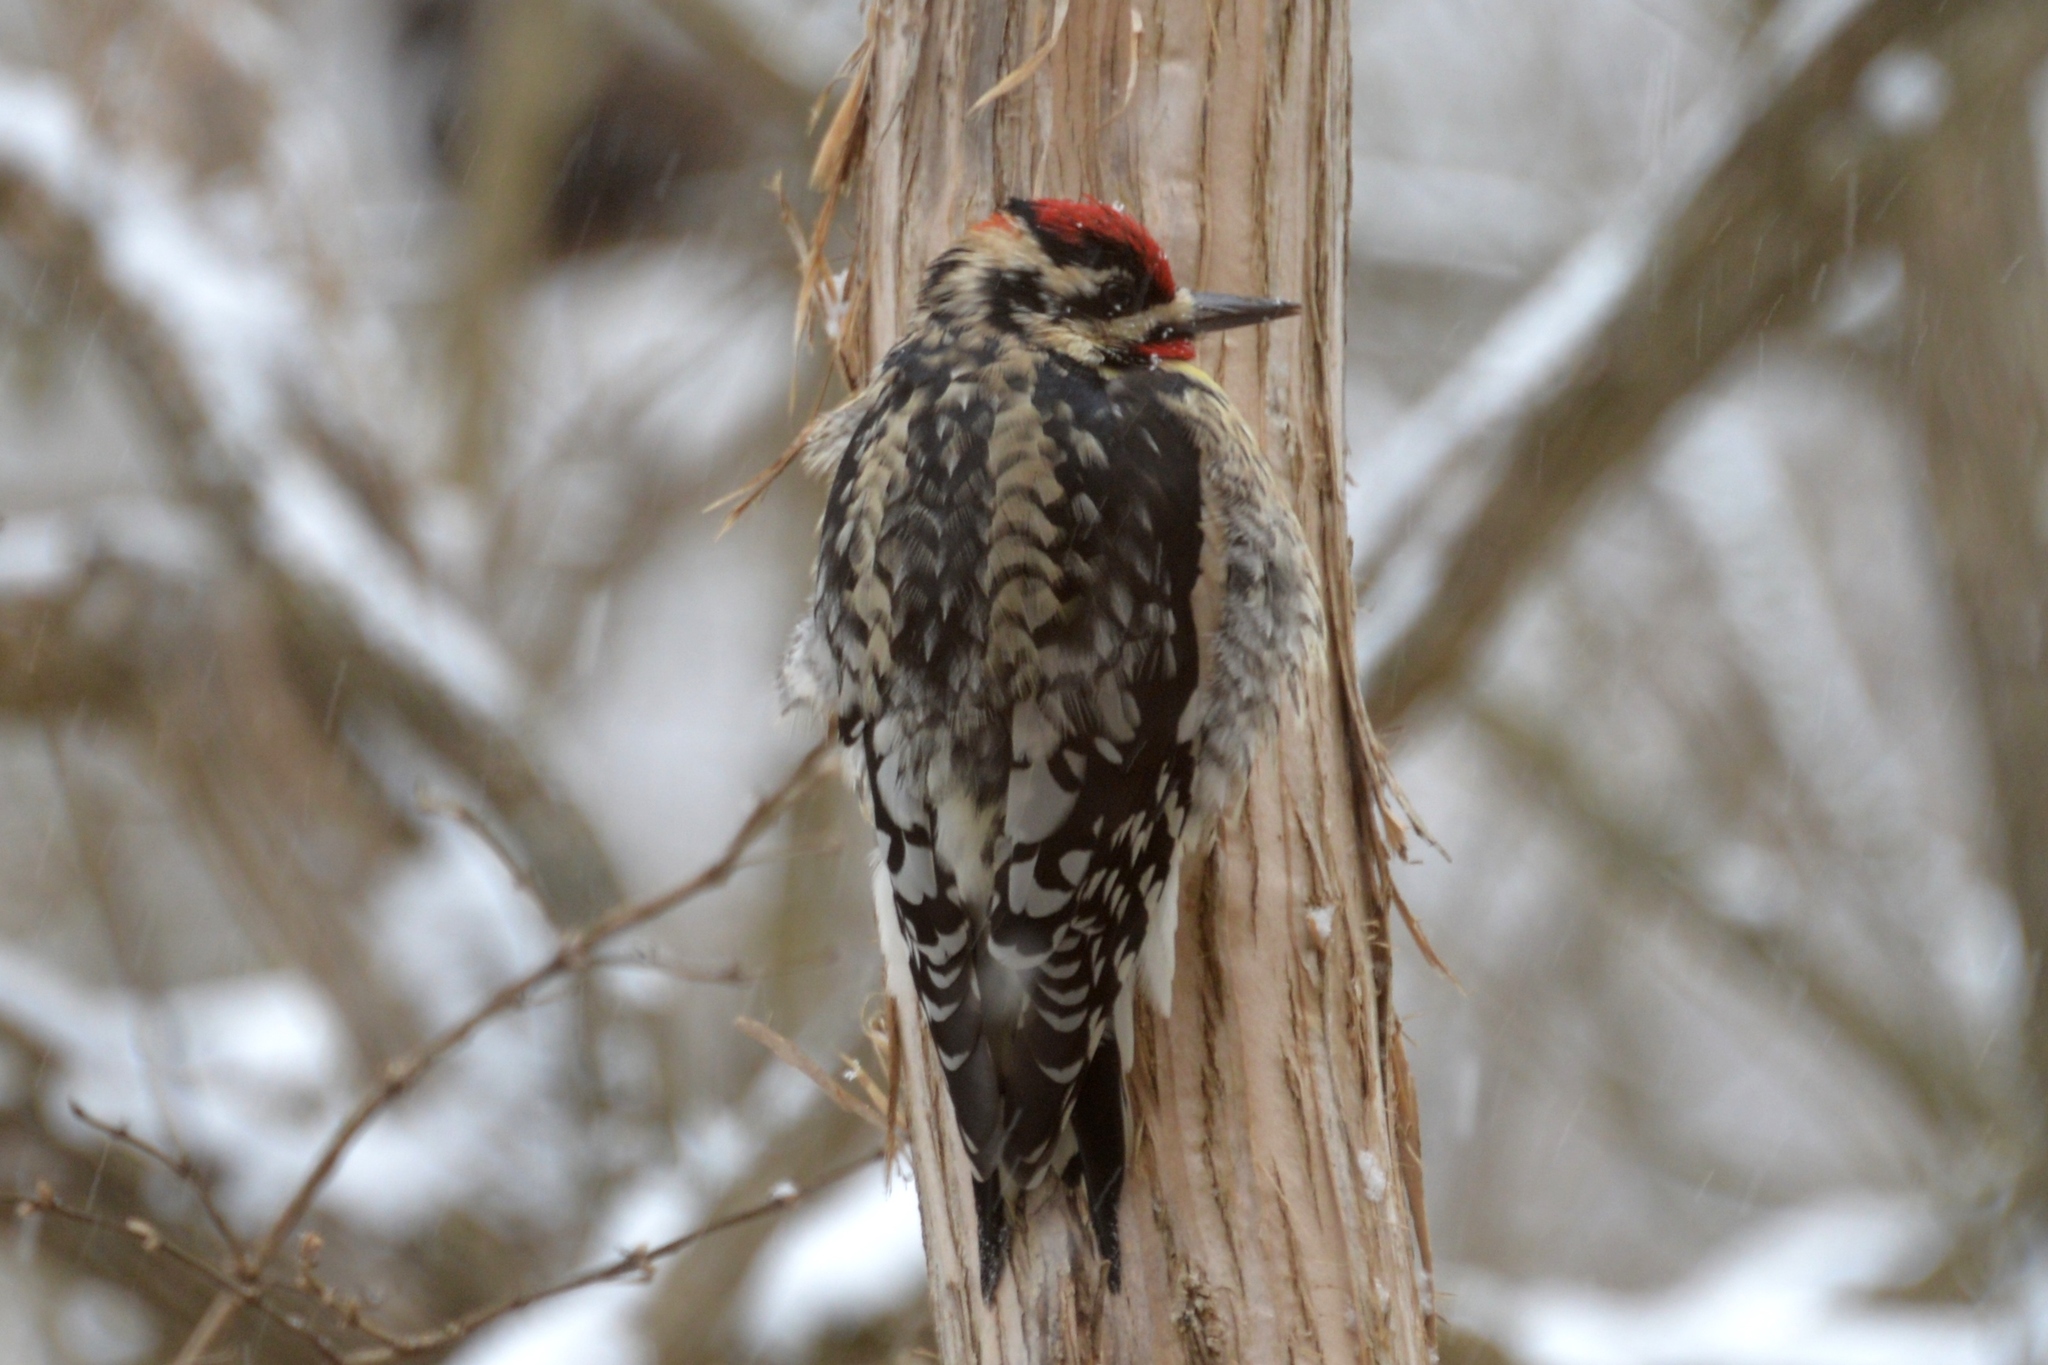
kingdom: Animalia
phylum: Chordata
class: Aves
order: Piciformes
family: Picidae
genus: Sphyrapicus
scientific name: Sphyrapicus varius
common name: Yellow-bellied sapsucker
